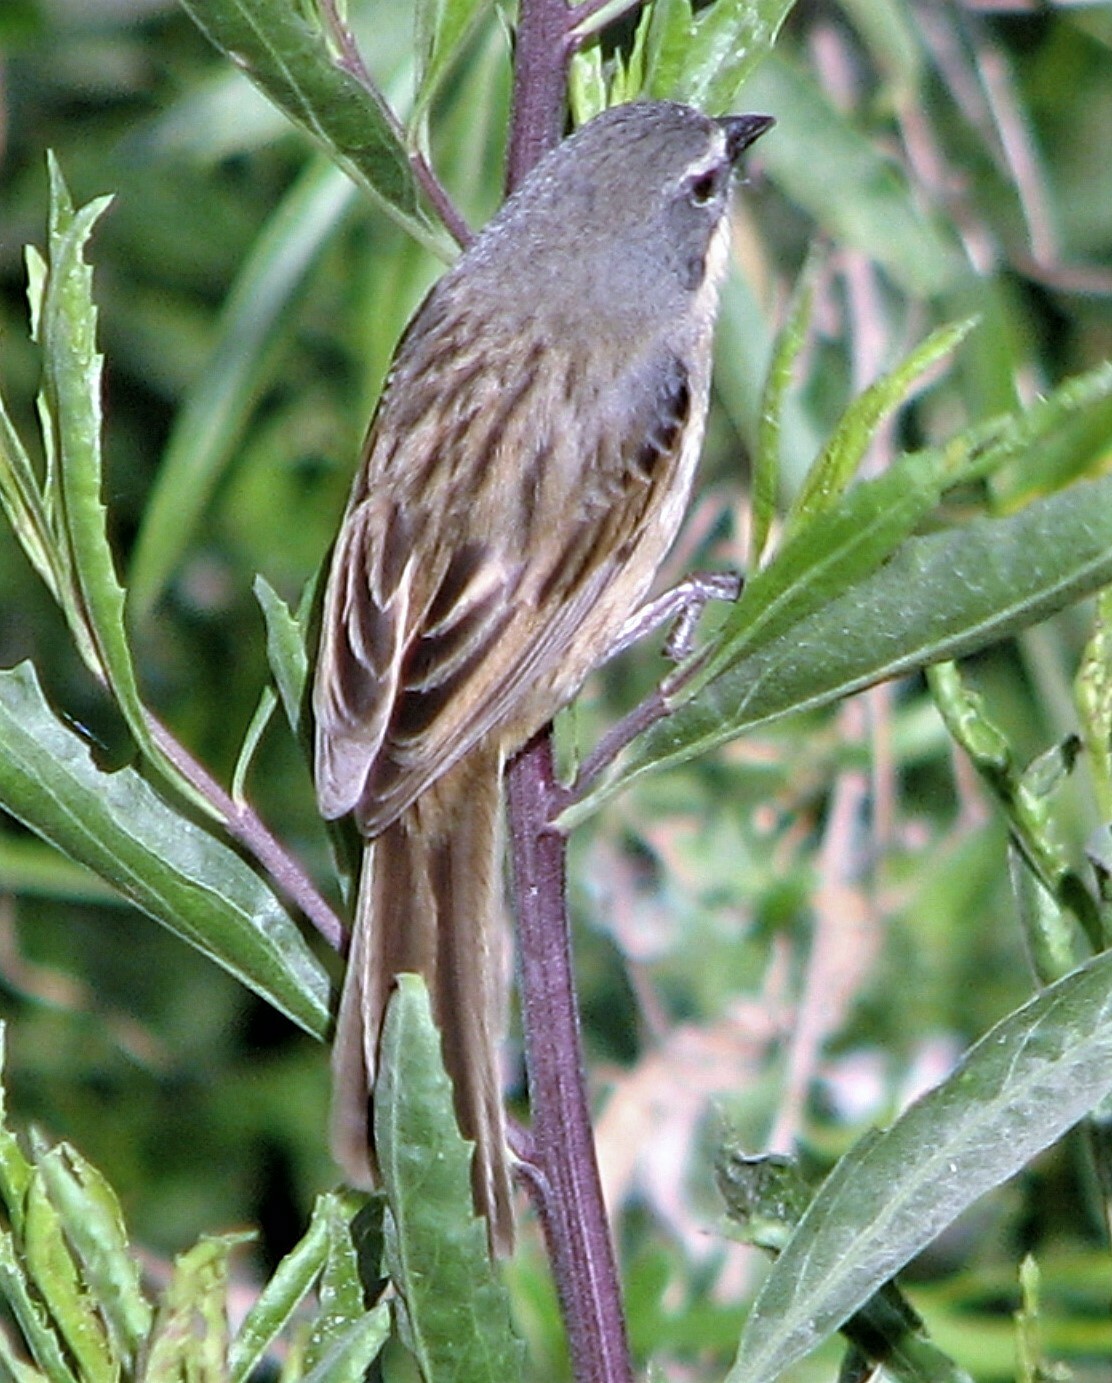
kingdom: Animalia
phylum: Chordata
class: Aves
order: Passeriformes
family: Thraupidae
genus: Donacospiza
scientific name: Donacospiza albifrons
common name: Long-tailed reed finch
